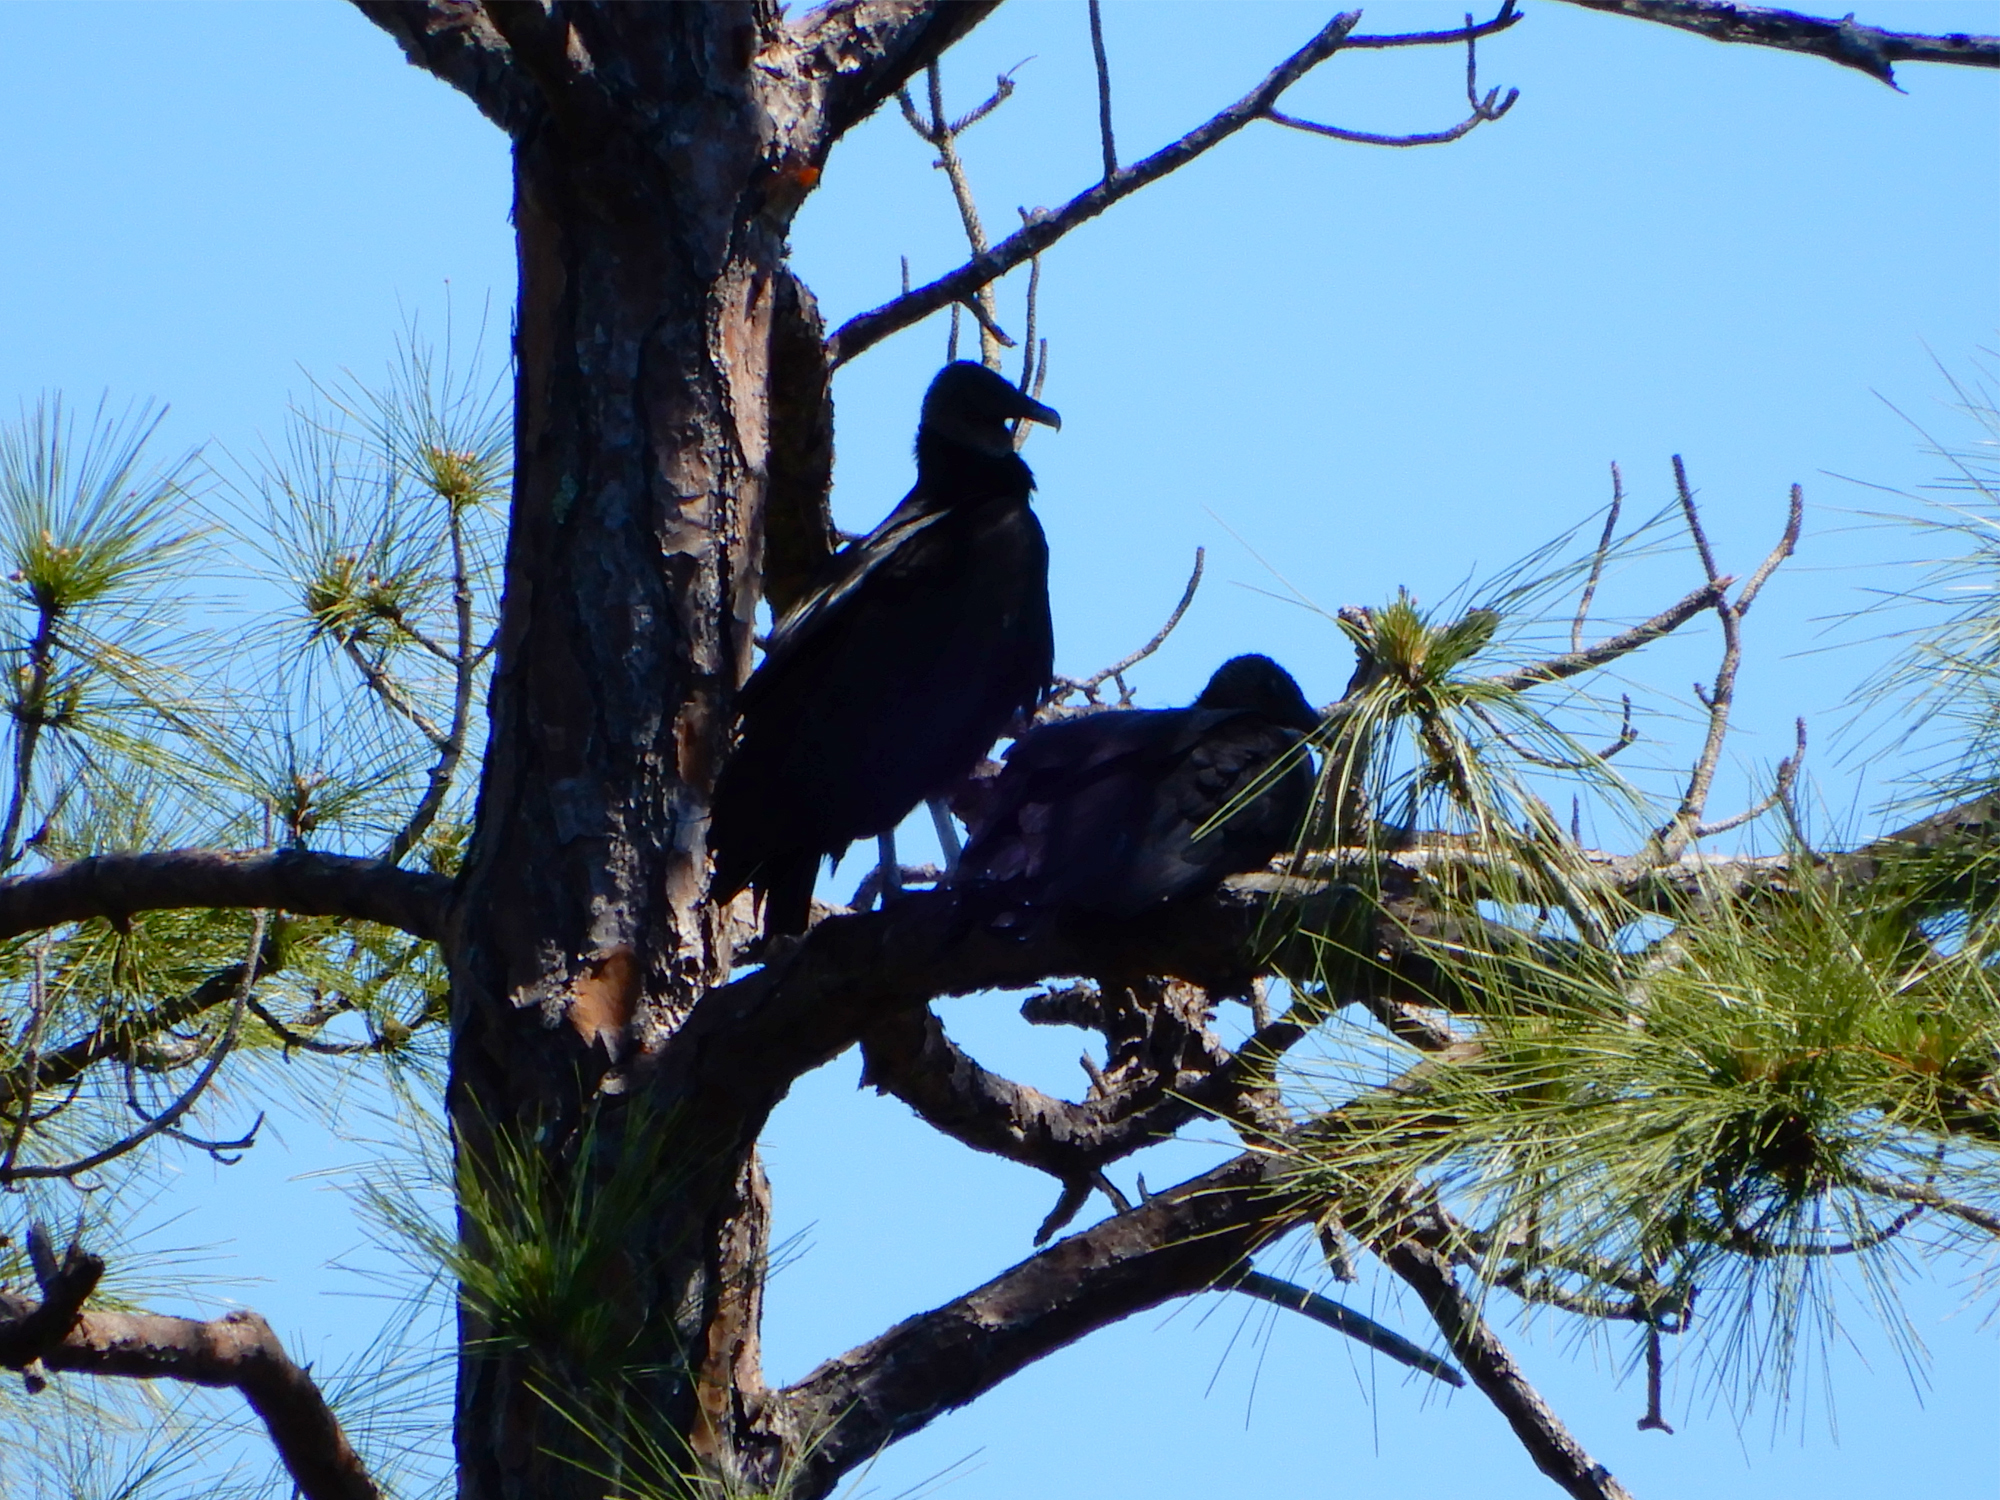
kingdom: Animalia
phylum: Chordata
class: Aves
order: Accipitriformes
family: Cathartidae
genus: Coragyps
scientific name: Coragyps atratus
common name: Black vulture
